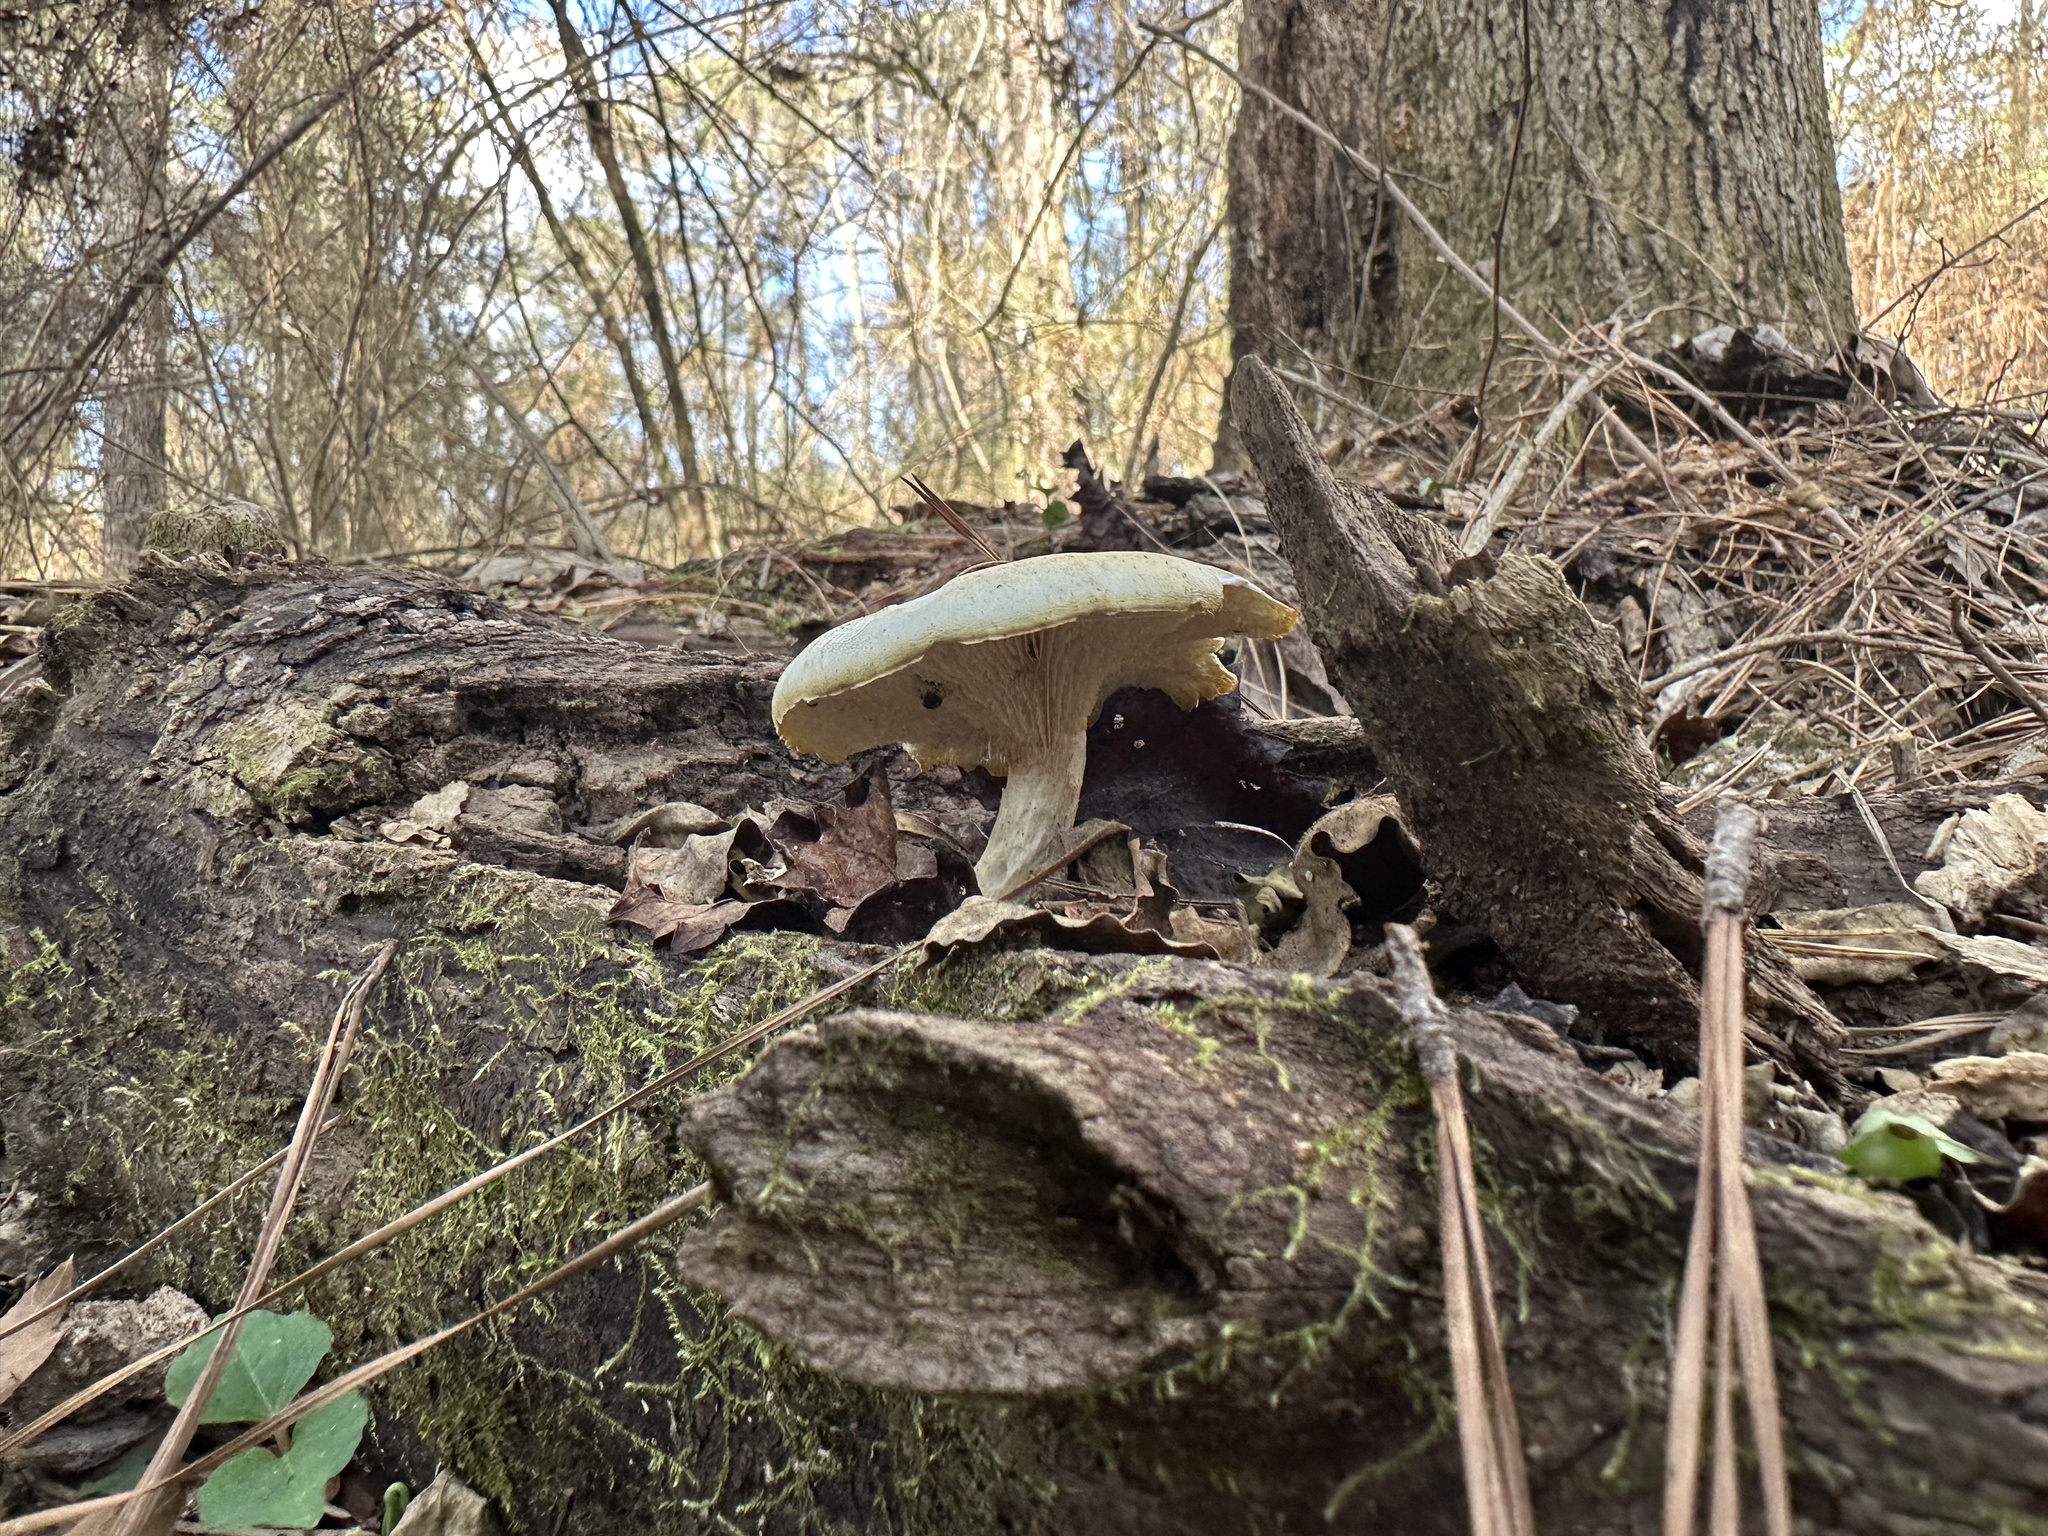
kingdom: Fungi
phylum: Basidiomycota
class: Agaricomycetes
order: Gloeophyllales
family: Gloeophyllaceae
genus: Neolentinus
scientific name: Neolentinus lepideus
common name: Scaly sawgill
